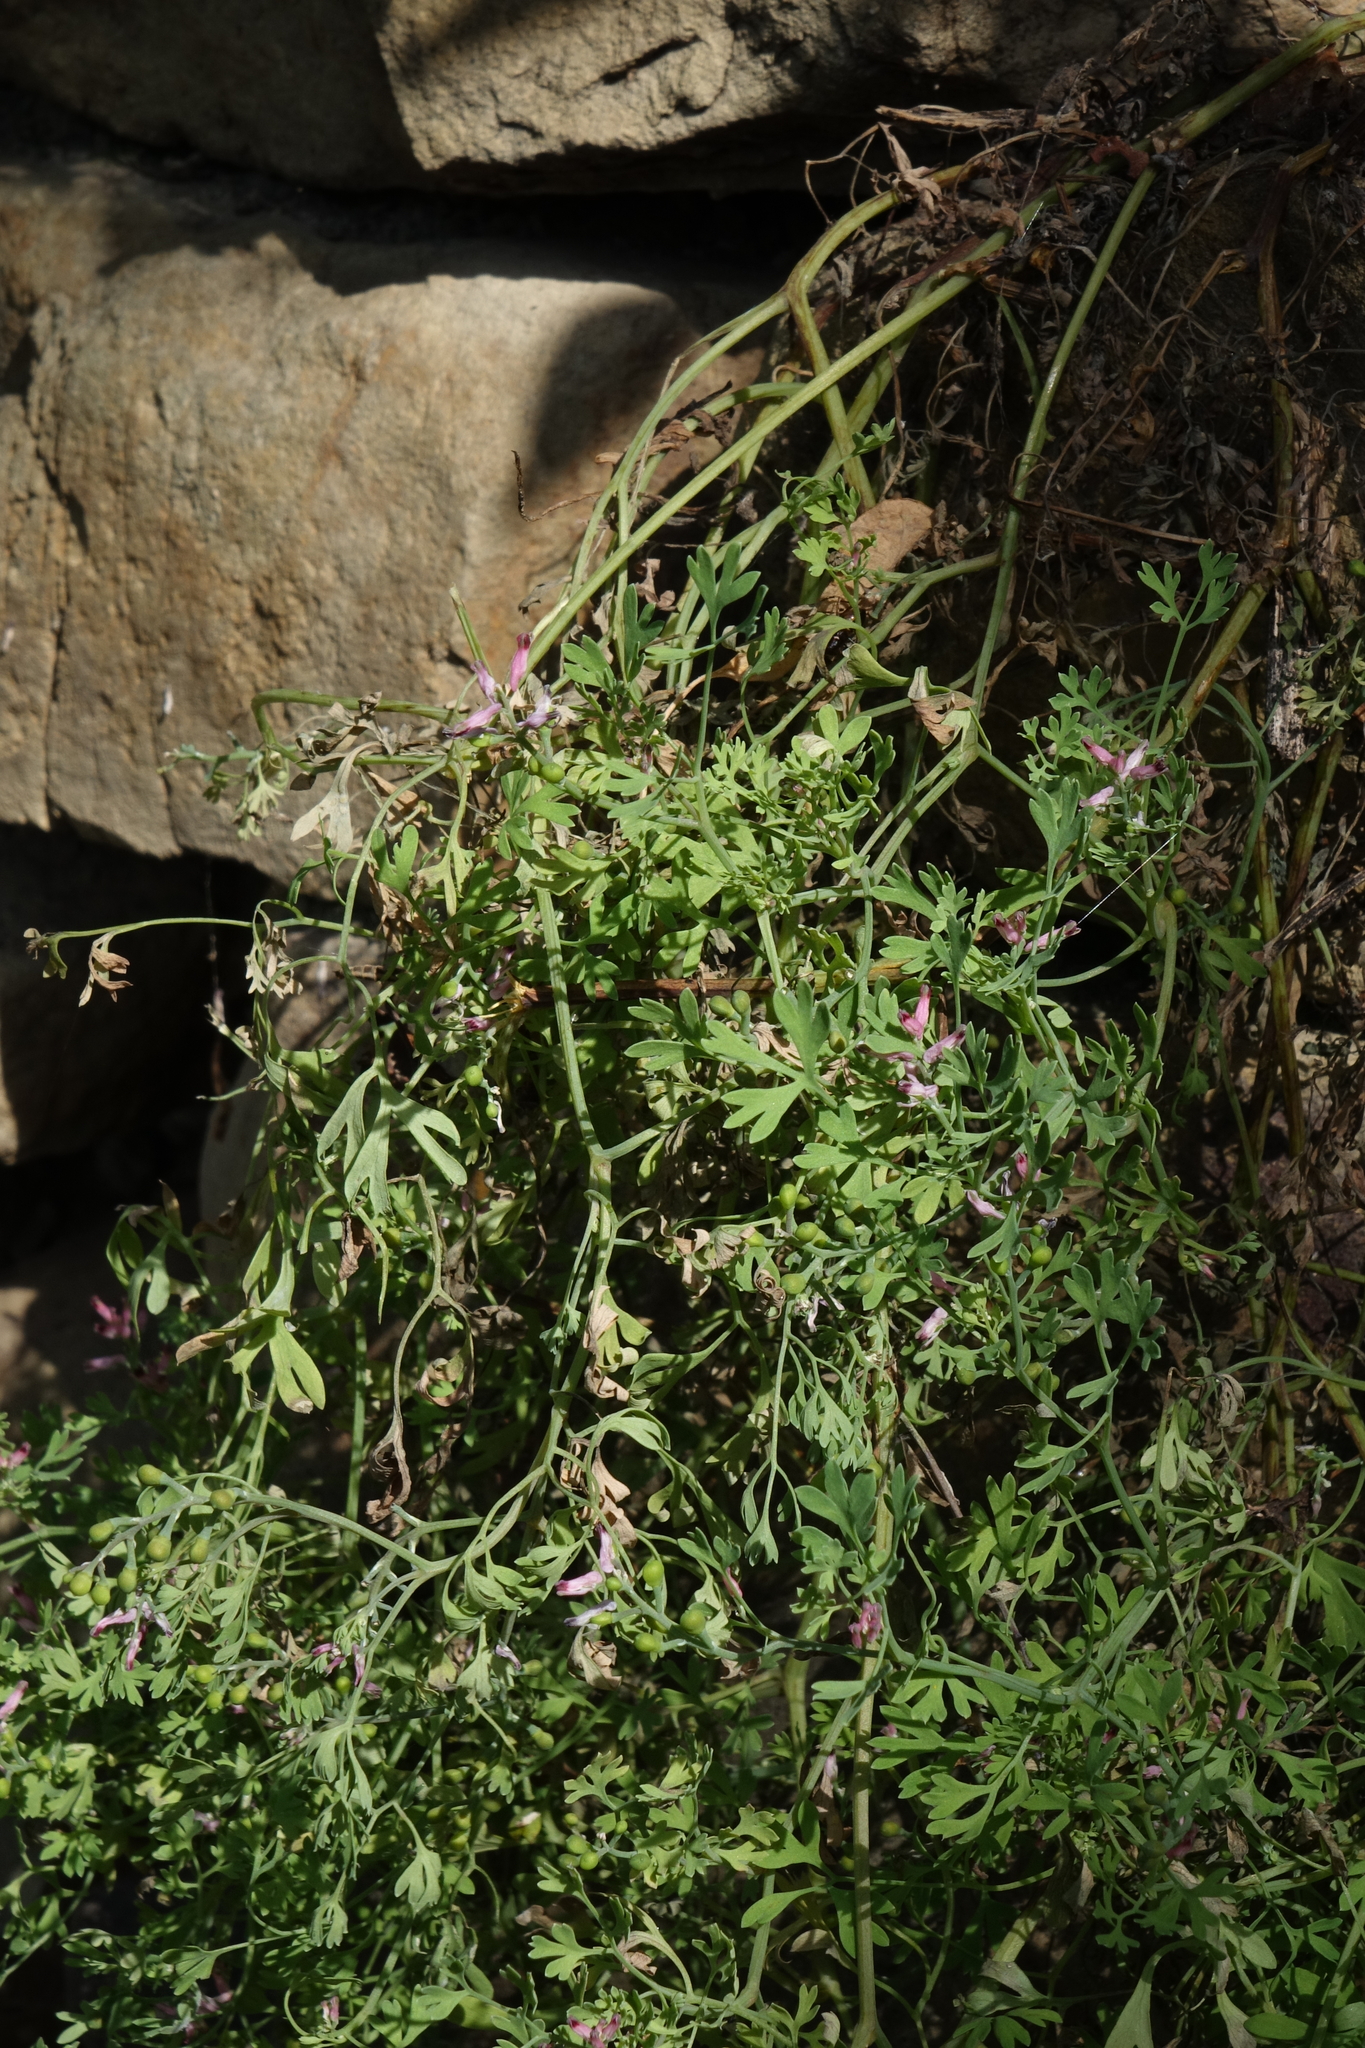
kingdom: Plantae
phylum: Tracheophyta
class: Magnoliopsida
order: Ranunculales
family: Papaveraceae
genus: Fumaria
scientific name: Fumaria schleicheri
